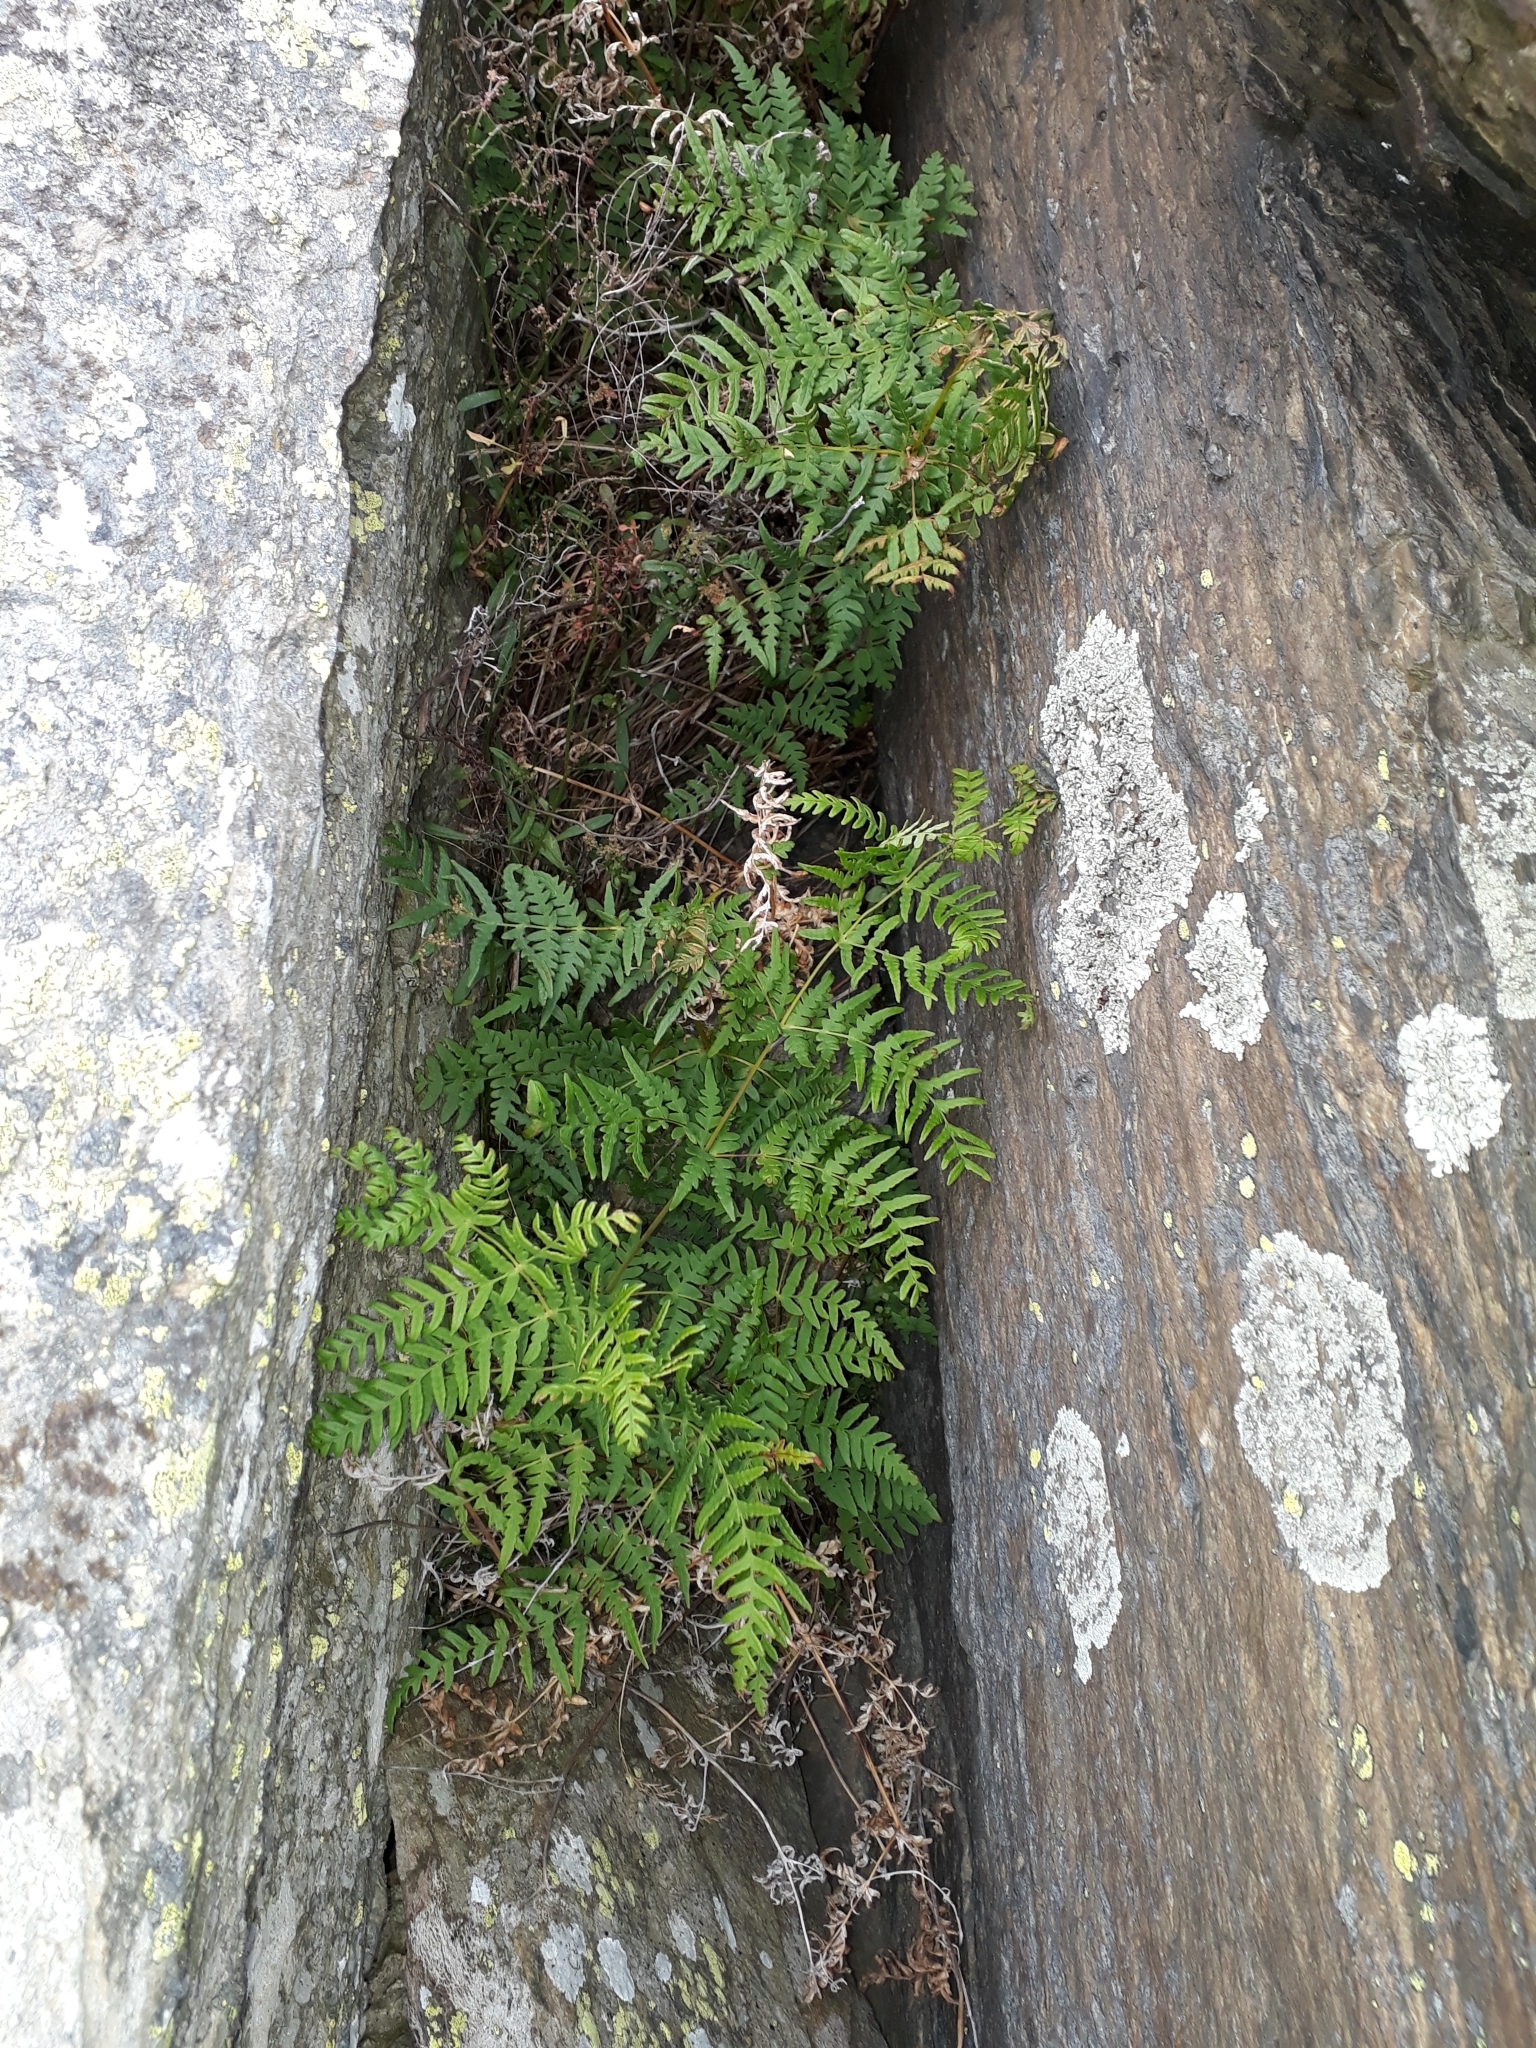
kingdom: Plantae
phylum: Tracheophyta
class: Polypodiopsida
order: Polypodiales
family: Dennstaedtiaceae
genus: Histiopteris
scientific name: Histiopteris incisa
